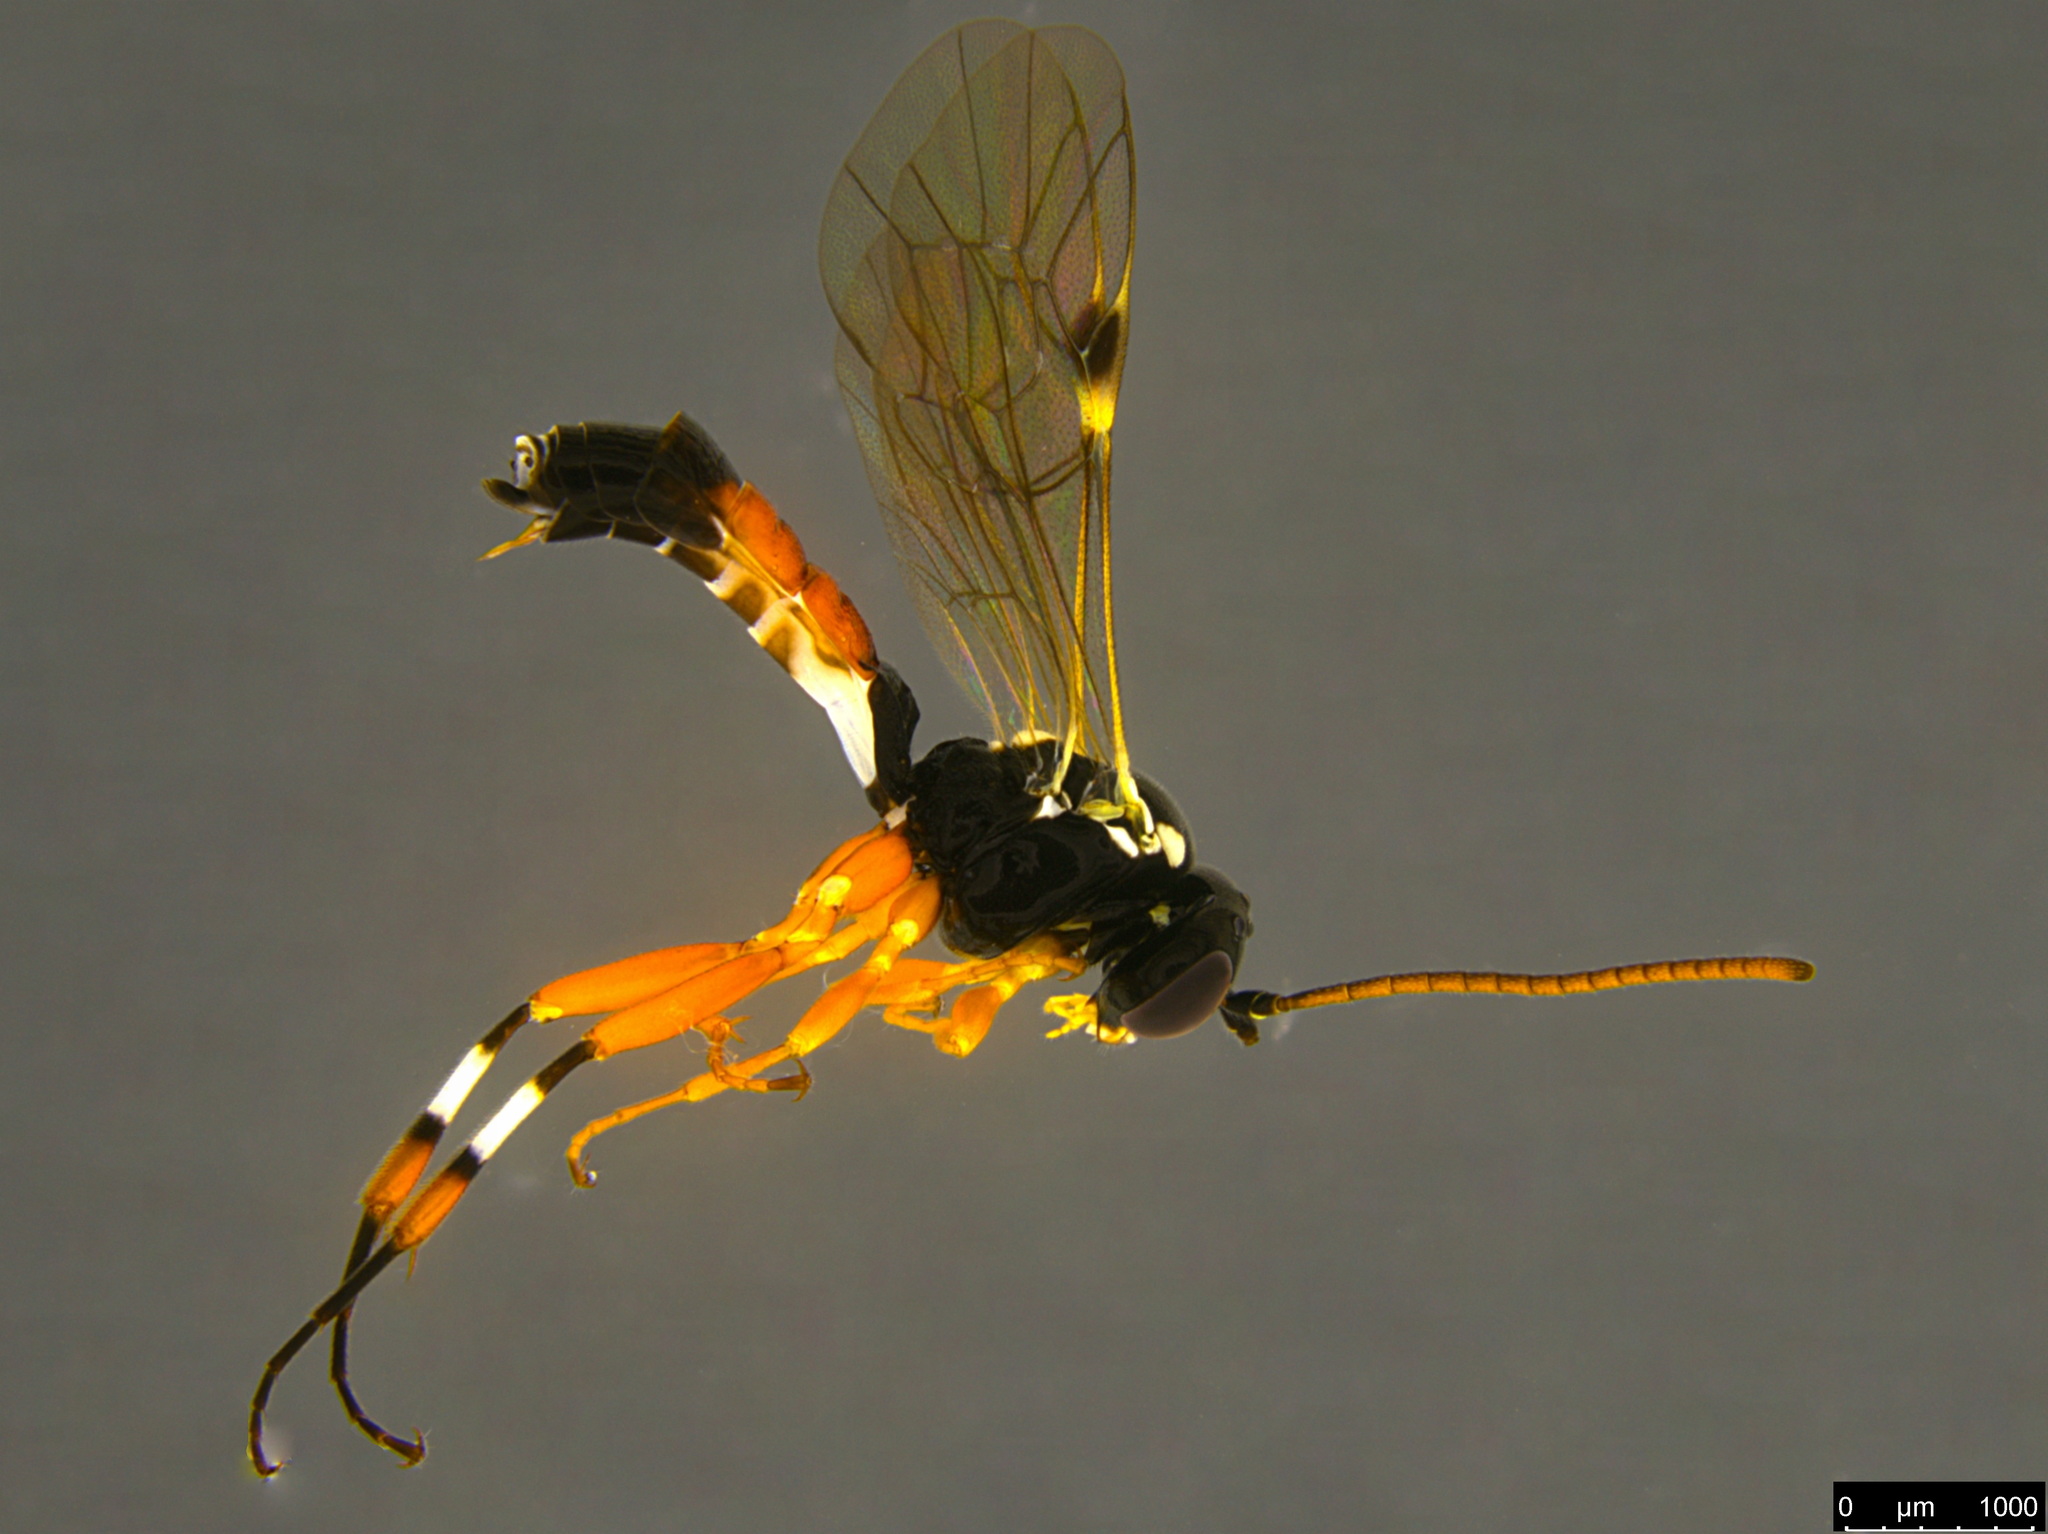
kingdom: Animalia
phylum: Arthropoda
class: Insecta
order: Hymenoptera
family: Ichneumonidae
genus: Diplazon
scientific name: Diplazon laetatorius
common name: Parasitoid wasp
